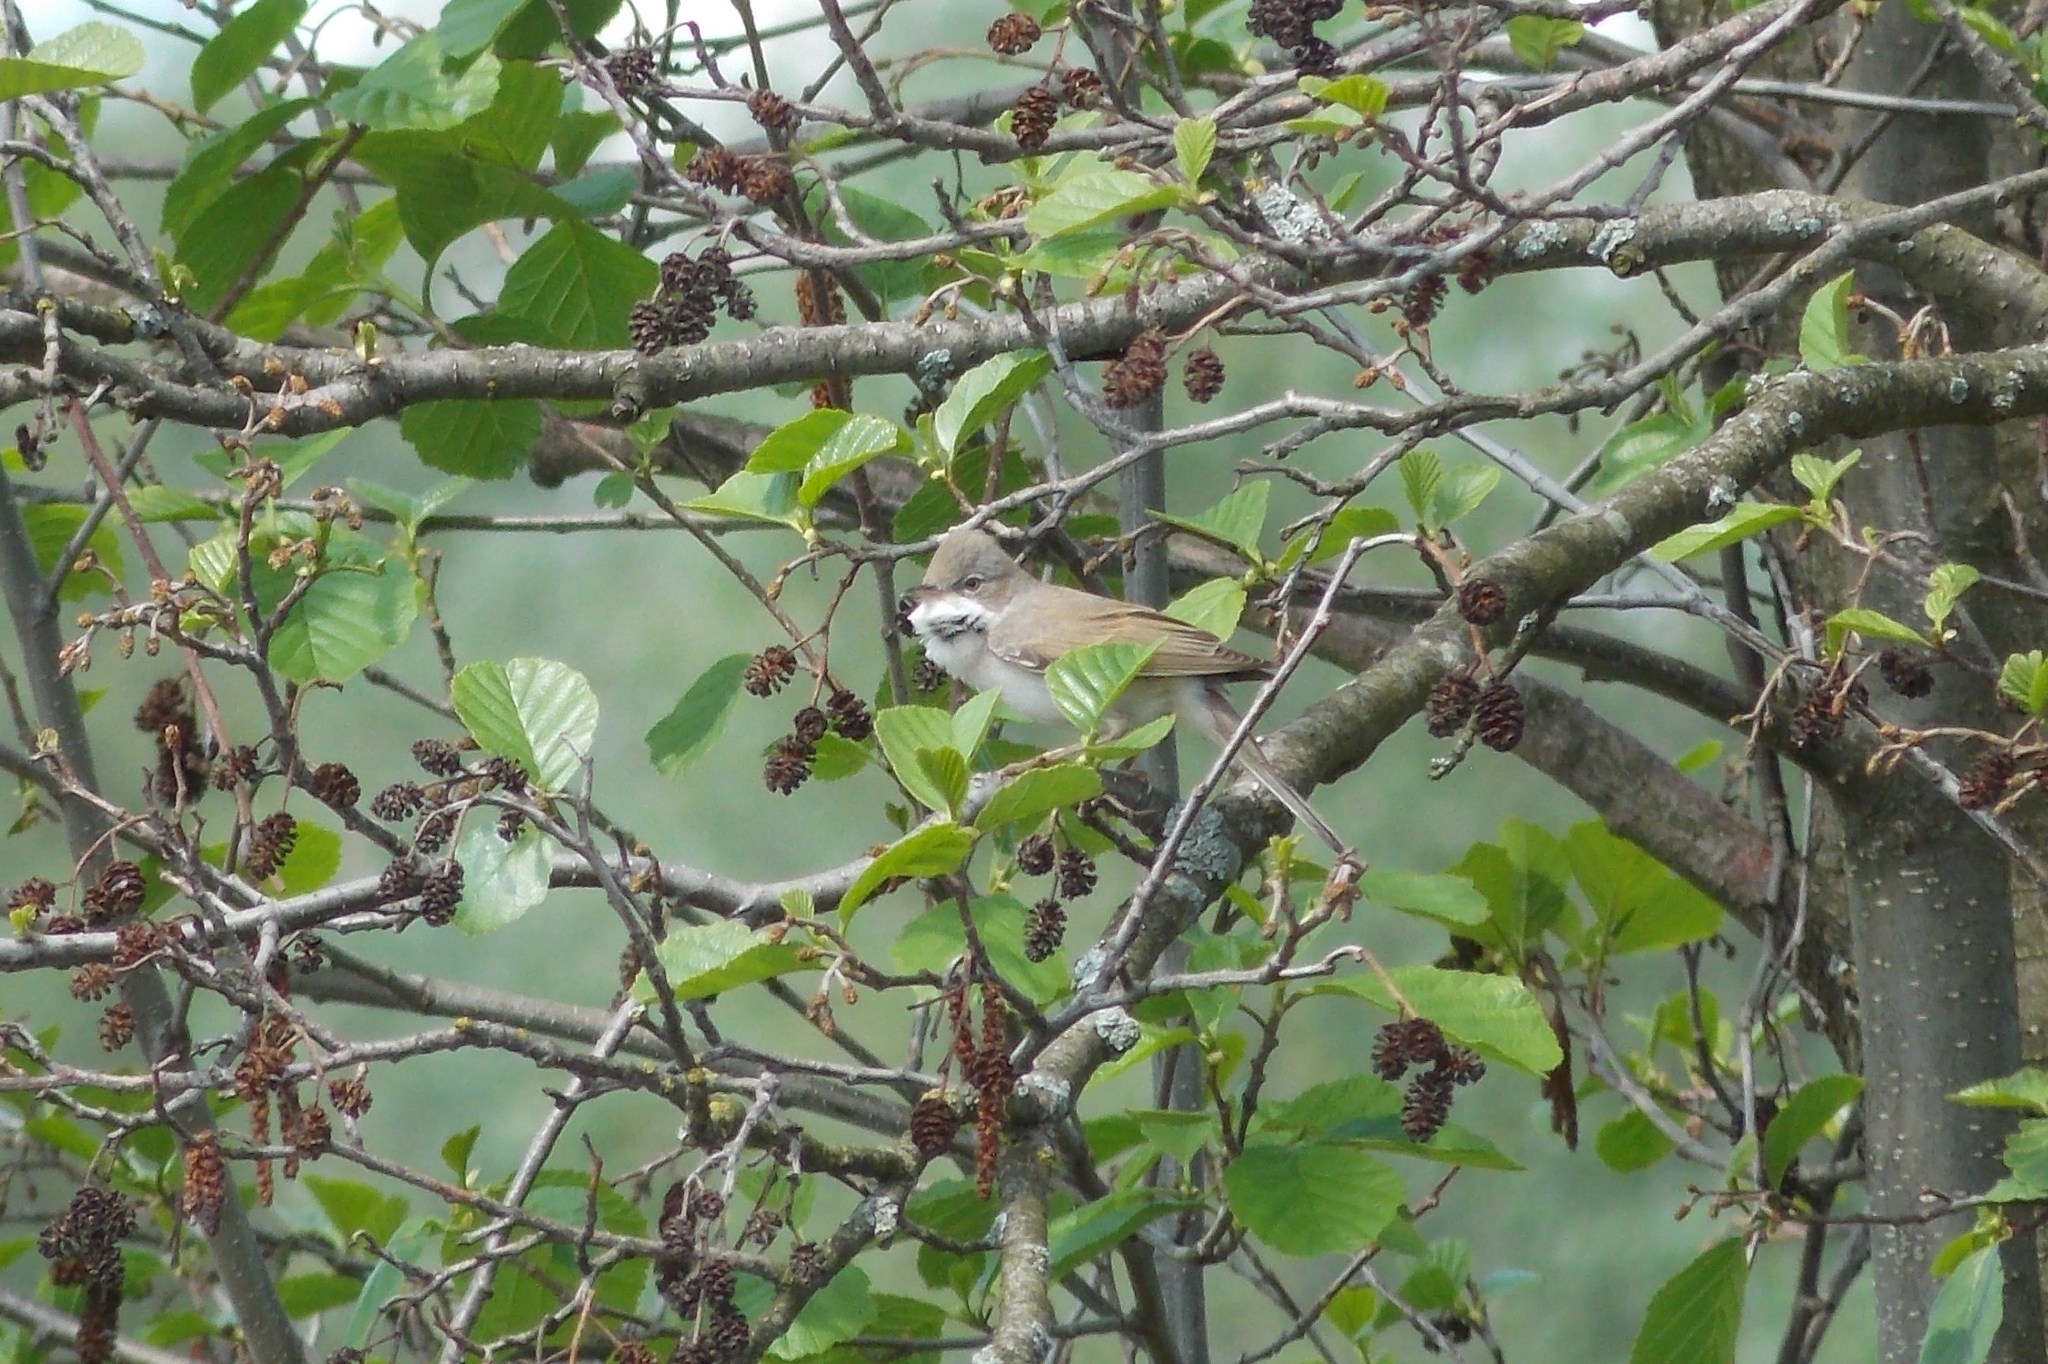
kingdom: Animalia
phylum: Chordata
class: Aves
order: Passeriformes
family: Sylviidae
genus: Sylvia
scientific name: Sylvia communis
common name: Common whitethroat
